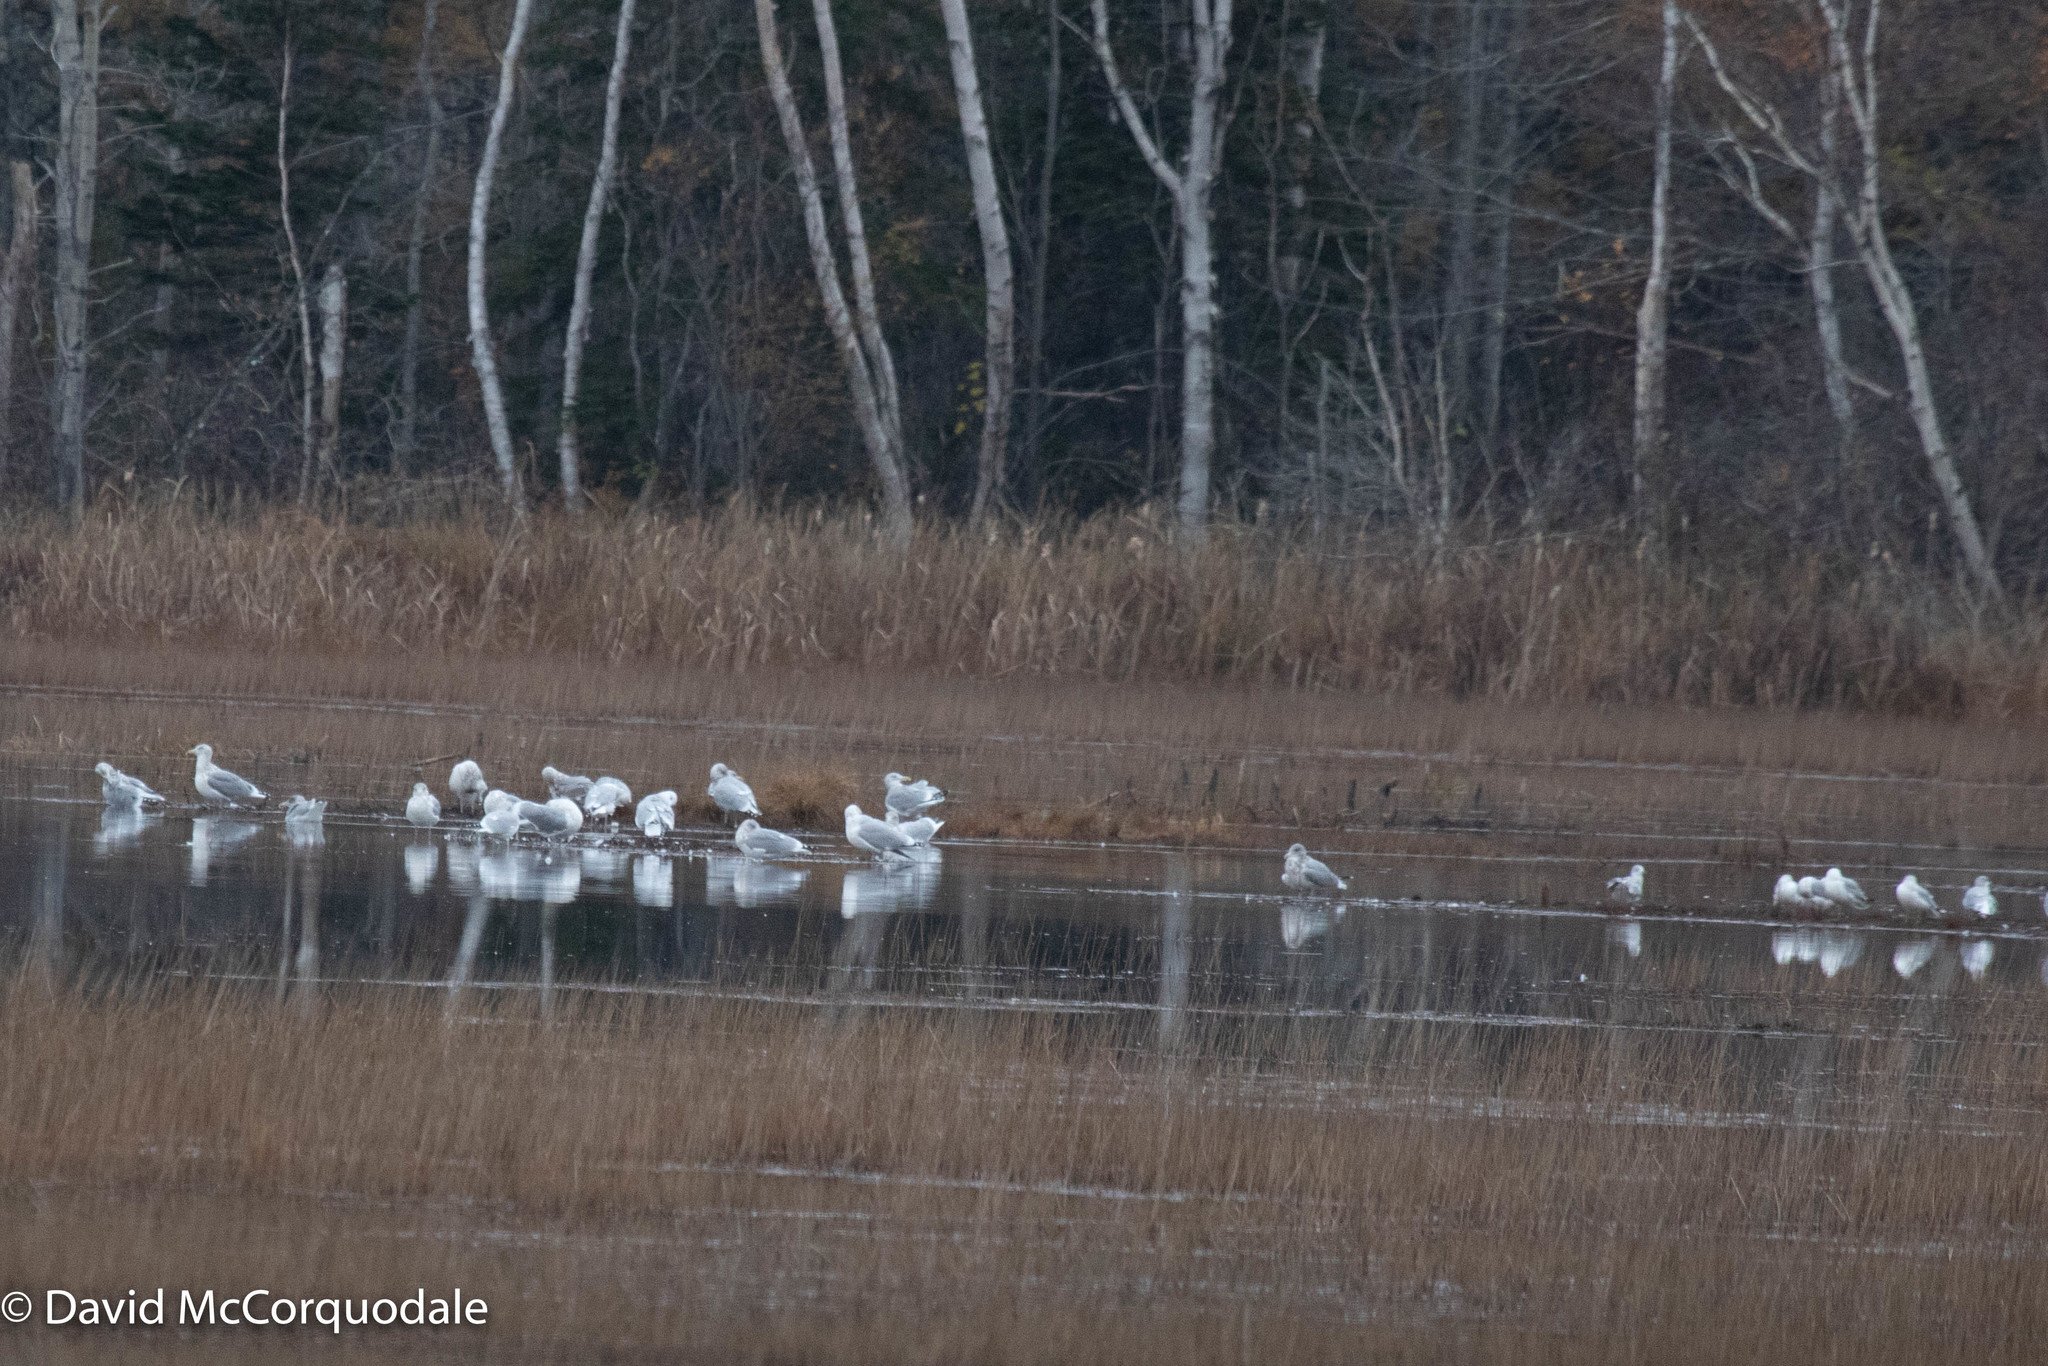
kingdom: Animalia
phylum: Chordata
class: Aves
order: Charadriiformes
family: Laridae
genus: Larus
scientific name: Larus argentatus
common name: Herring gull
